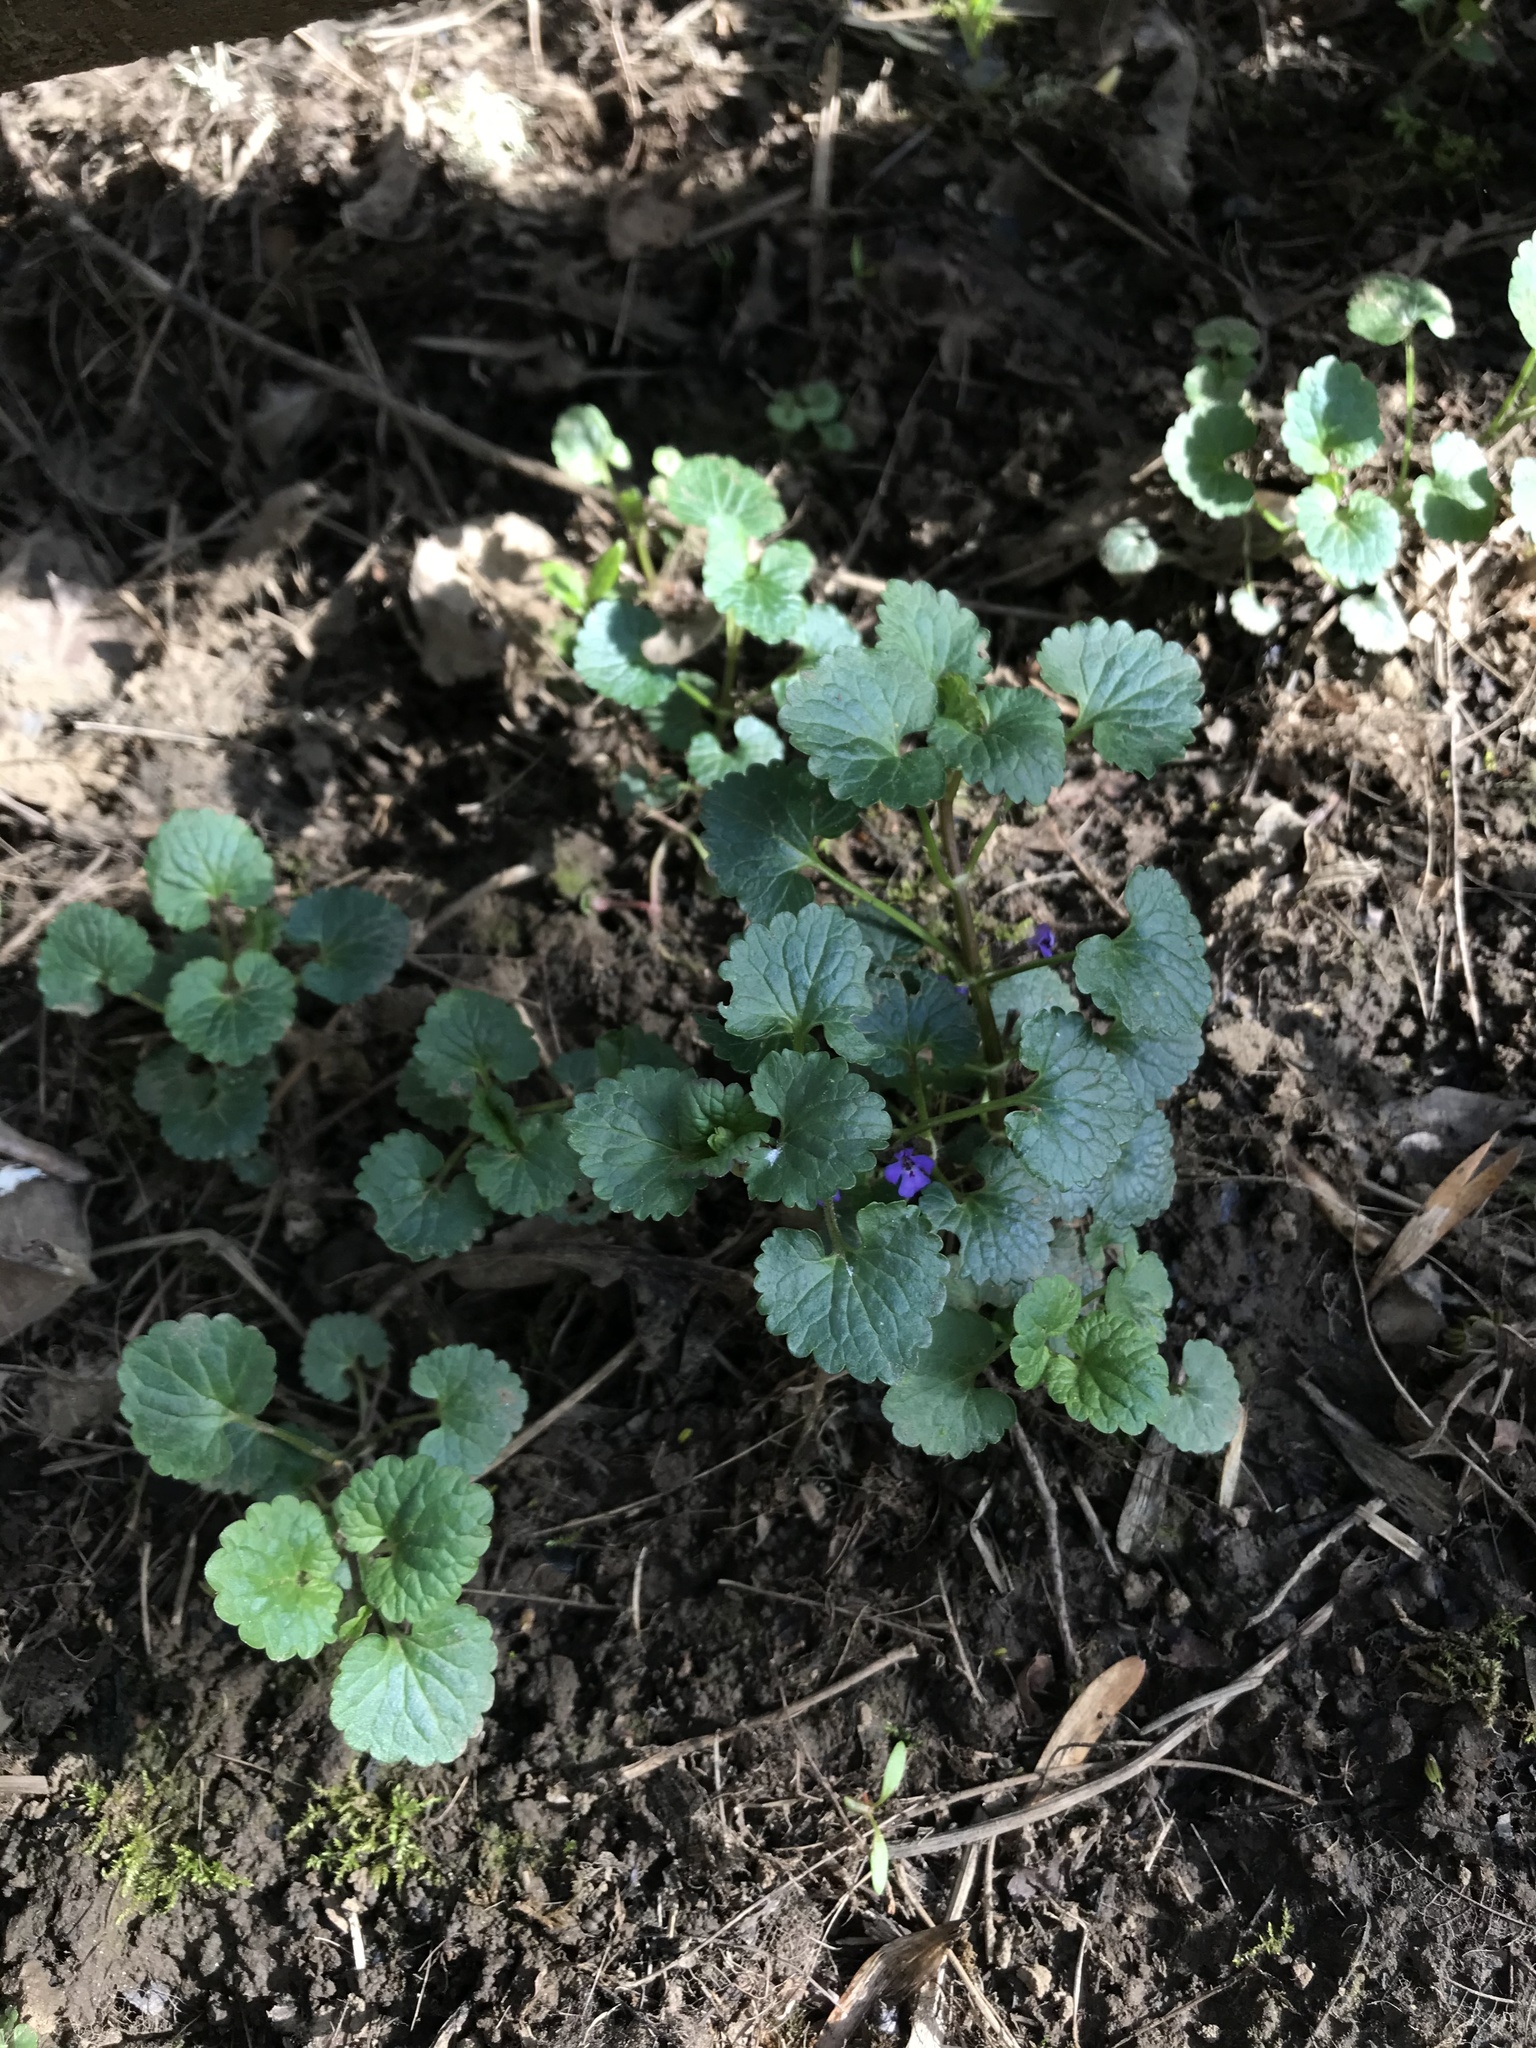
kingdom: Plantae
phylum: Tracheophyta
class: Magnoliopsida
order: Lamiales
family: Lamiaceae
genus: Glechoma
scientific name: Glechoma hederacea
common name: Ground ivy
